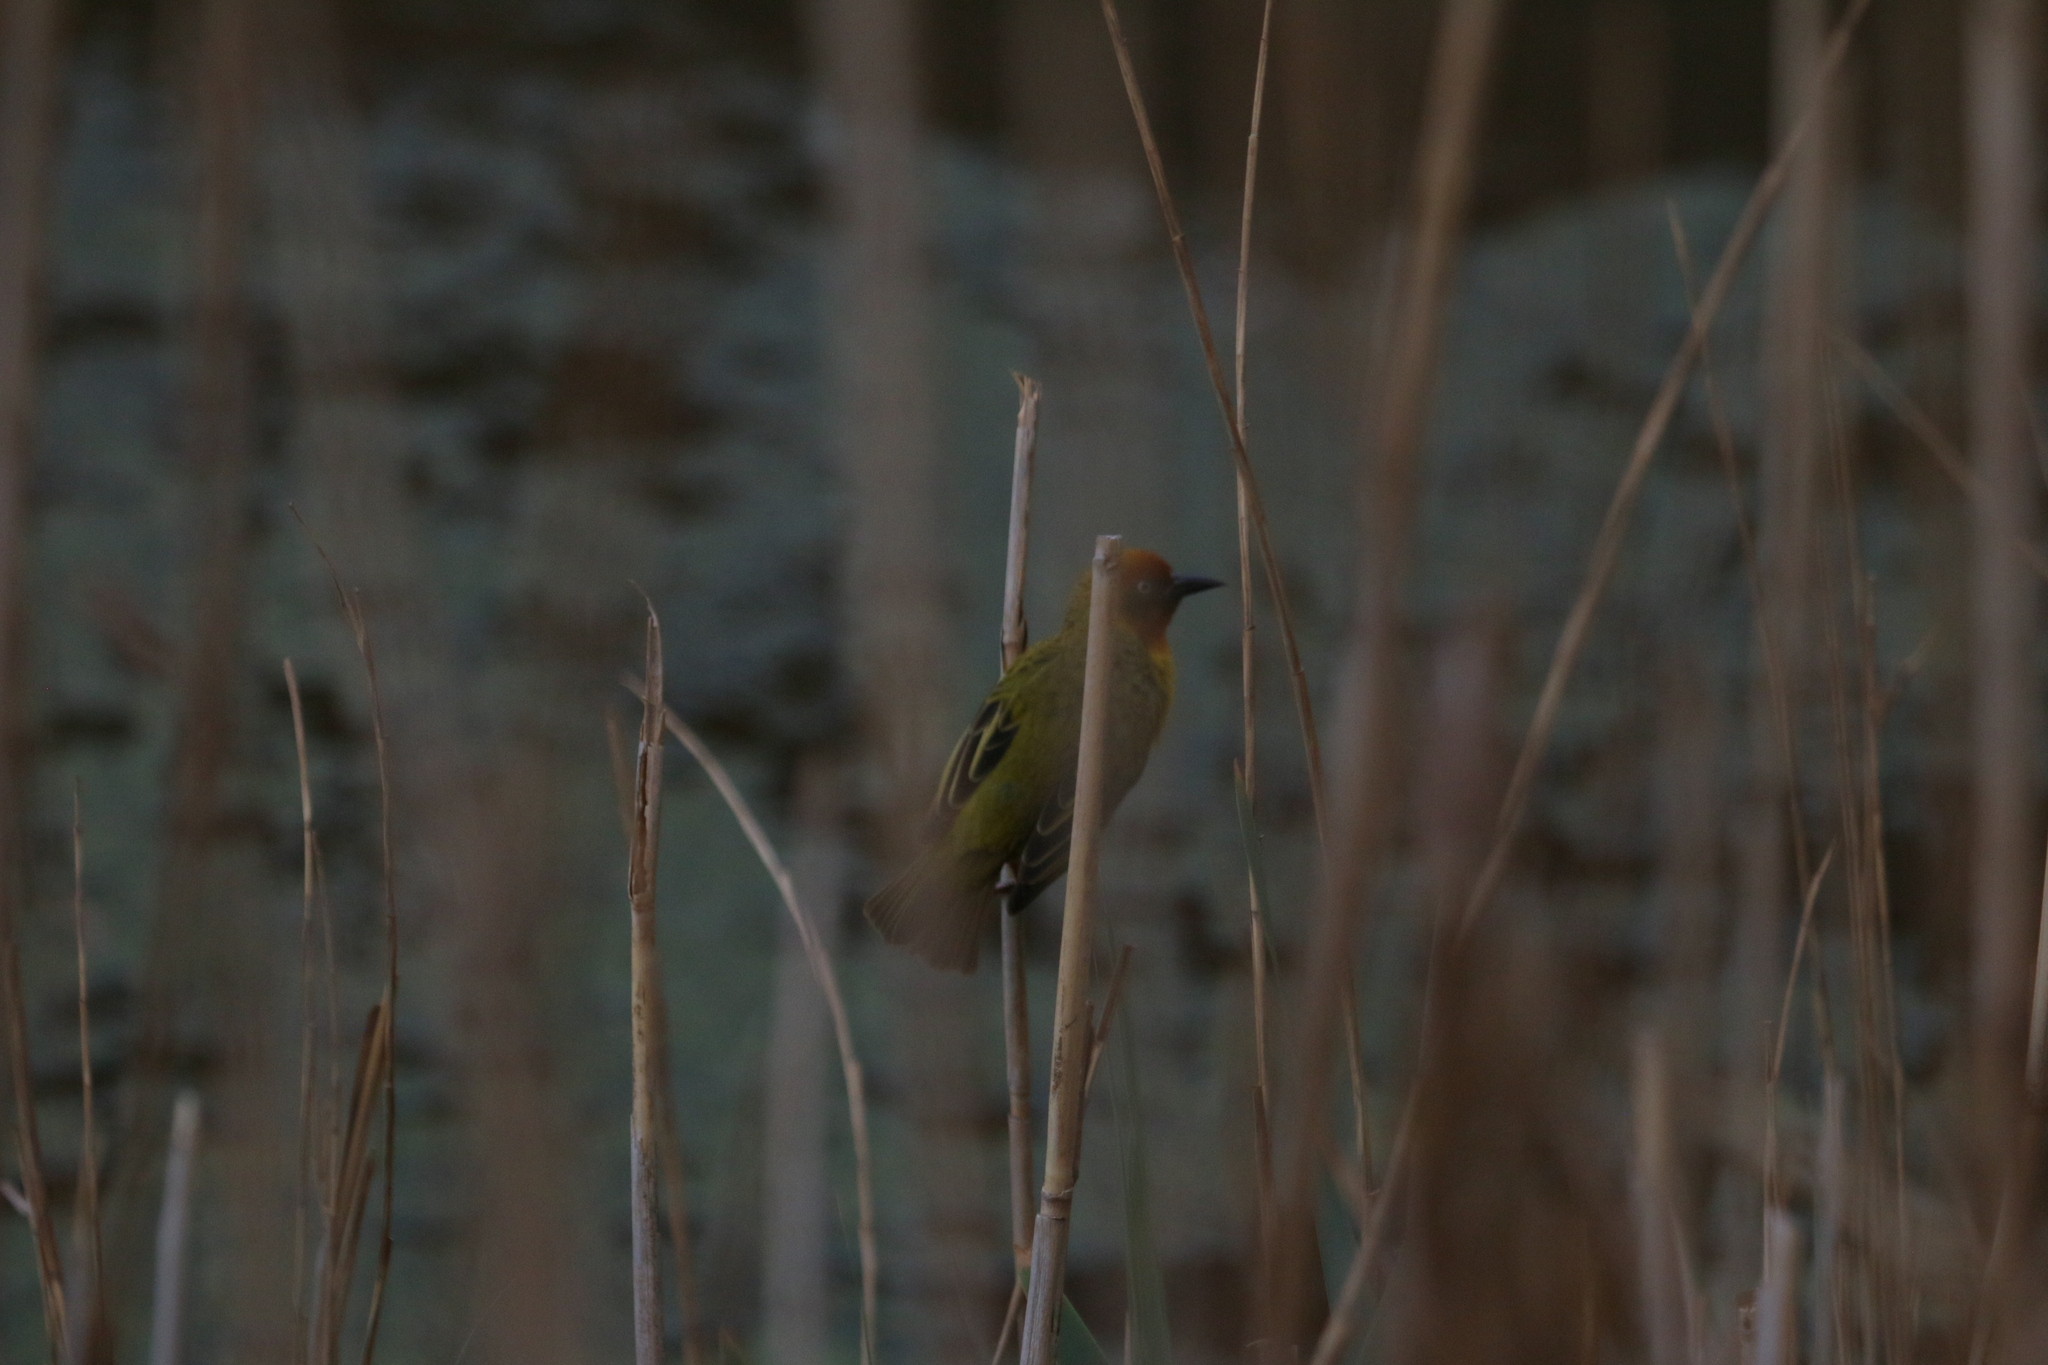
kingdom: Animalia
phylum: Chordata
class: Aves
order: Passeriformes
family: Ploceidae
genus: Ploceus
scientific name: Ploceus capensis
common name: Cape weaver
